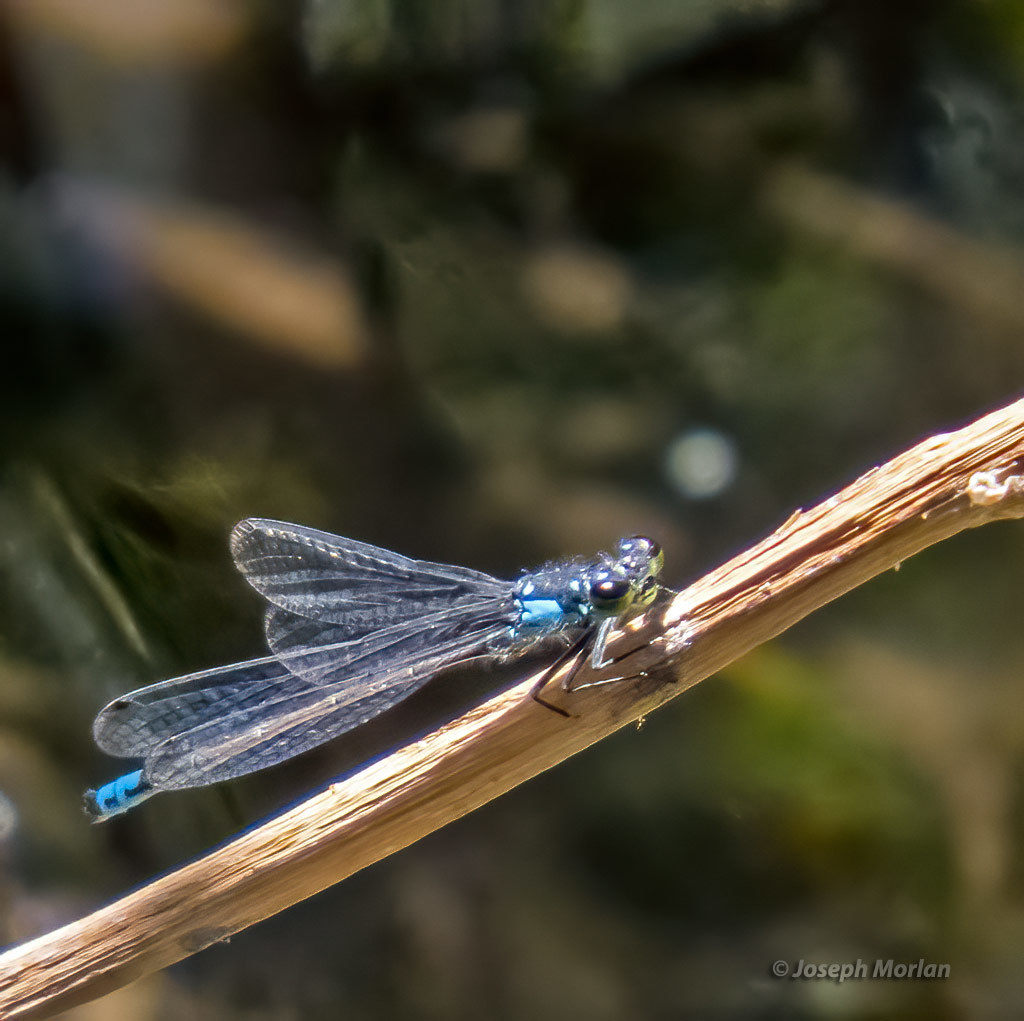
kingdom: Animalia
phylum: Arthropoda
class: Insecta
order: Odonata
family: Coenagrionidae
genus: Ischnura
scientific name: Ischnura cervula
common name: Pacific forktail
